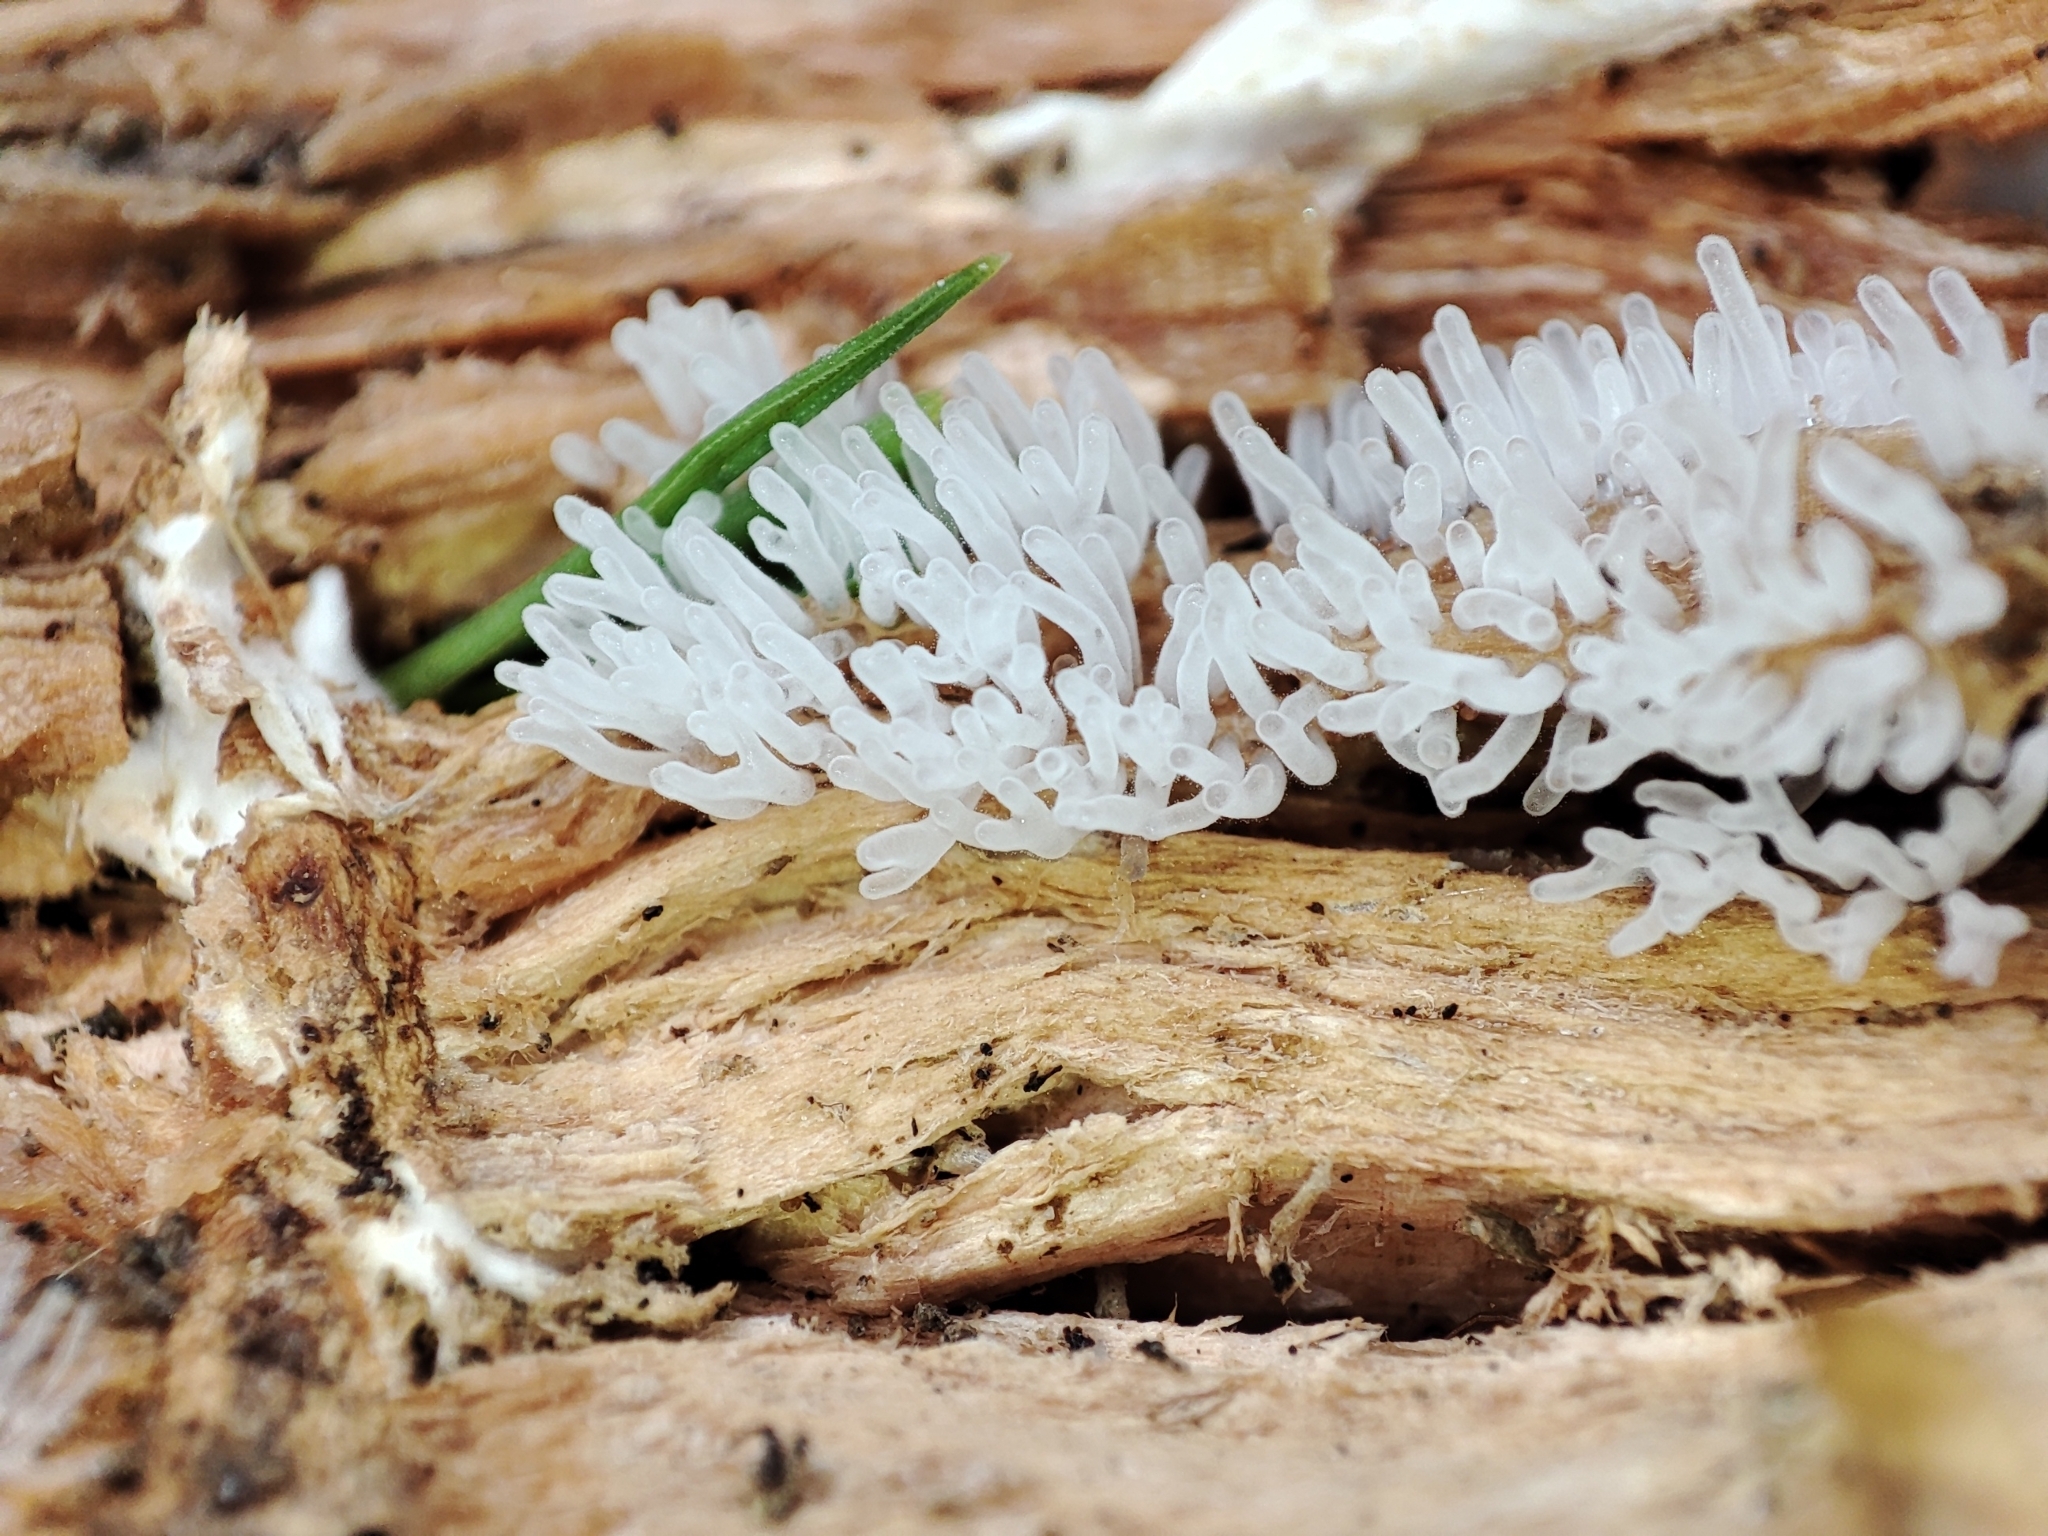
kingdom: Protozoa
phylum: Mycetozoa
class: Protosteliomycetes
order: Ceratiomyxales
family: Ceratiomyxaceae
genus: Ceratiomyxa
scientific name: Ceratiomyxa fruticulosa
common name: Honeycomb coral slime mold
